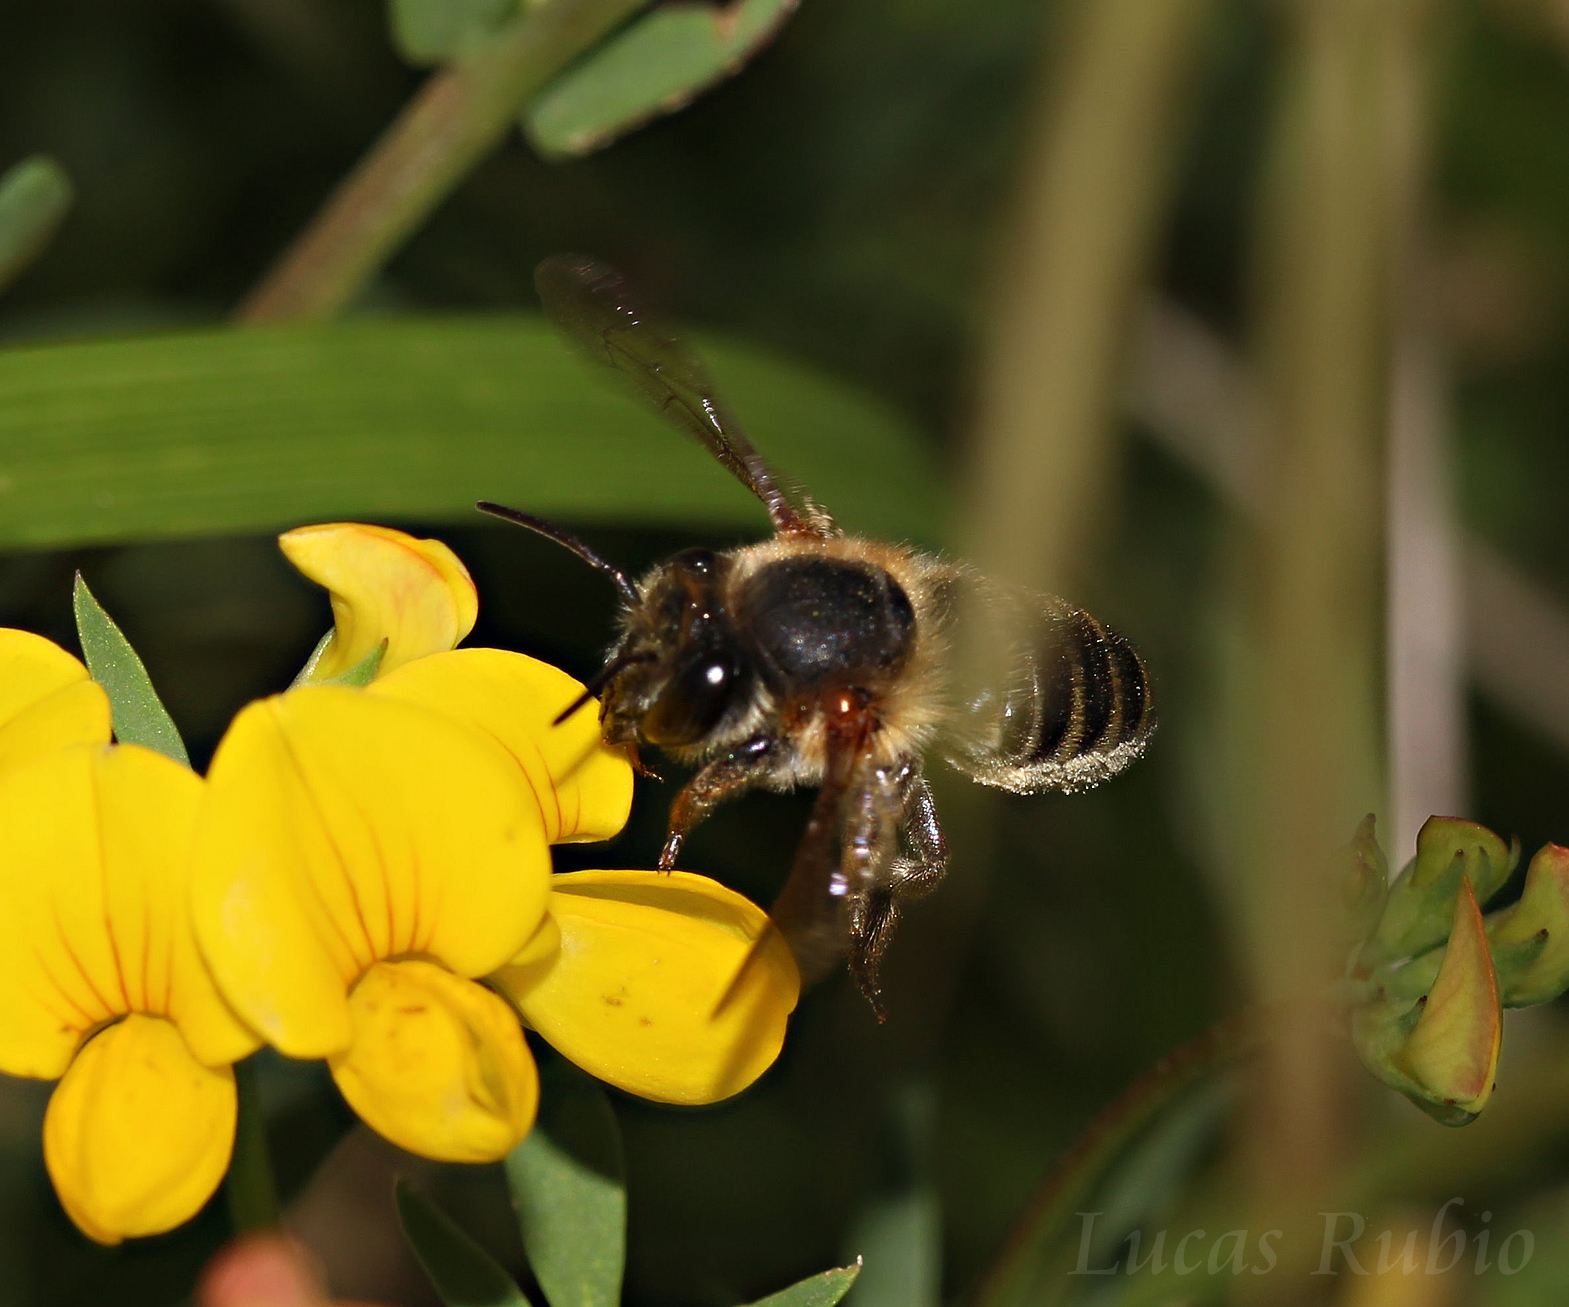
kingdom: Animalia
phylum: Arthropoda
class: Insecta
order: Hymenoptera
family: Megachilidae
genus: Megachile
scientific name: Megachile
